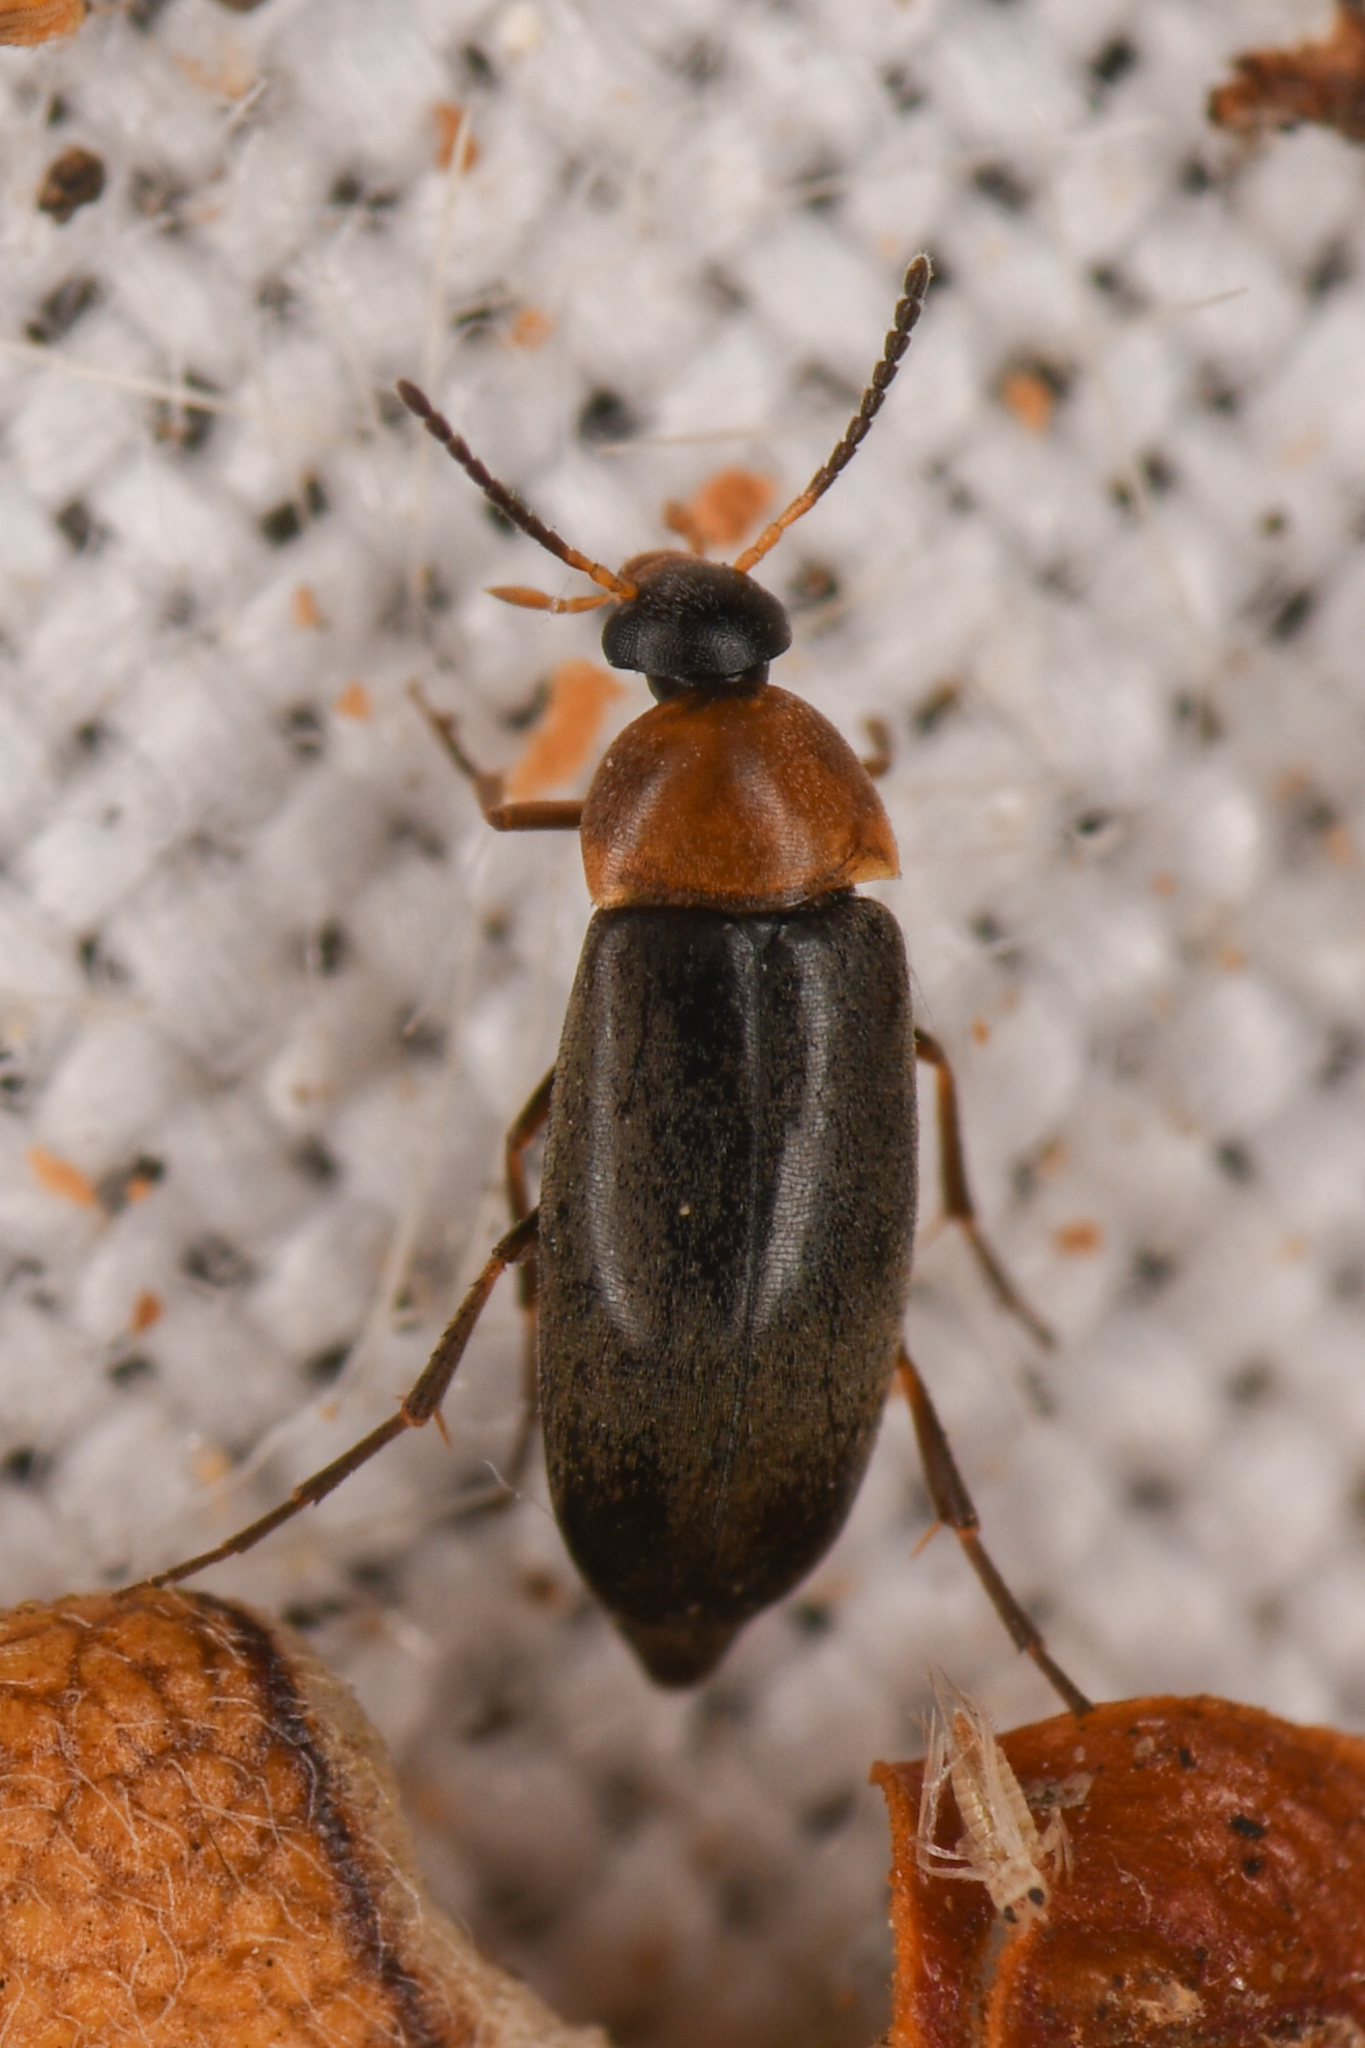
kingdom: Animalia
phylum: Arthropoda
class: Insecta
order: Coleoptera
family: Scraptiidae
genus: Anaspis
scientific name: Anaspis collaris
